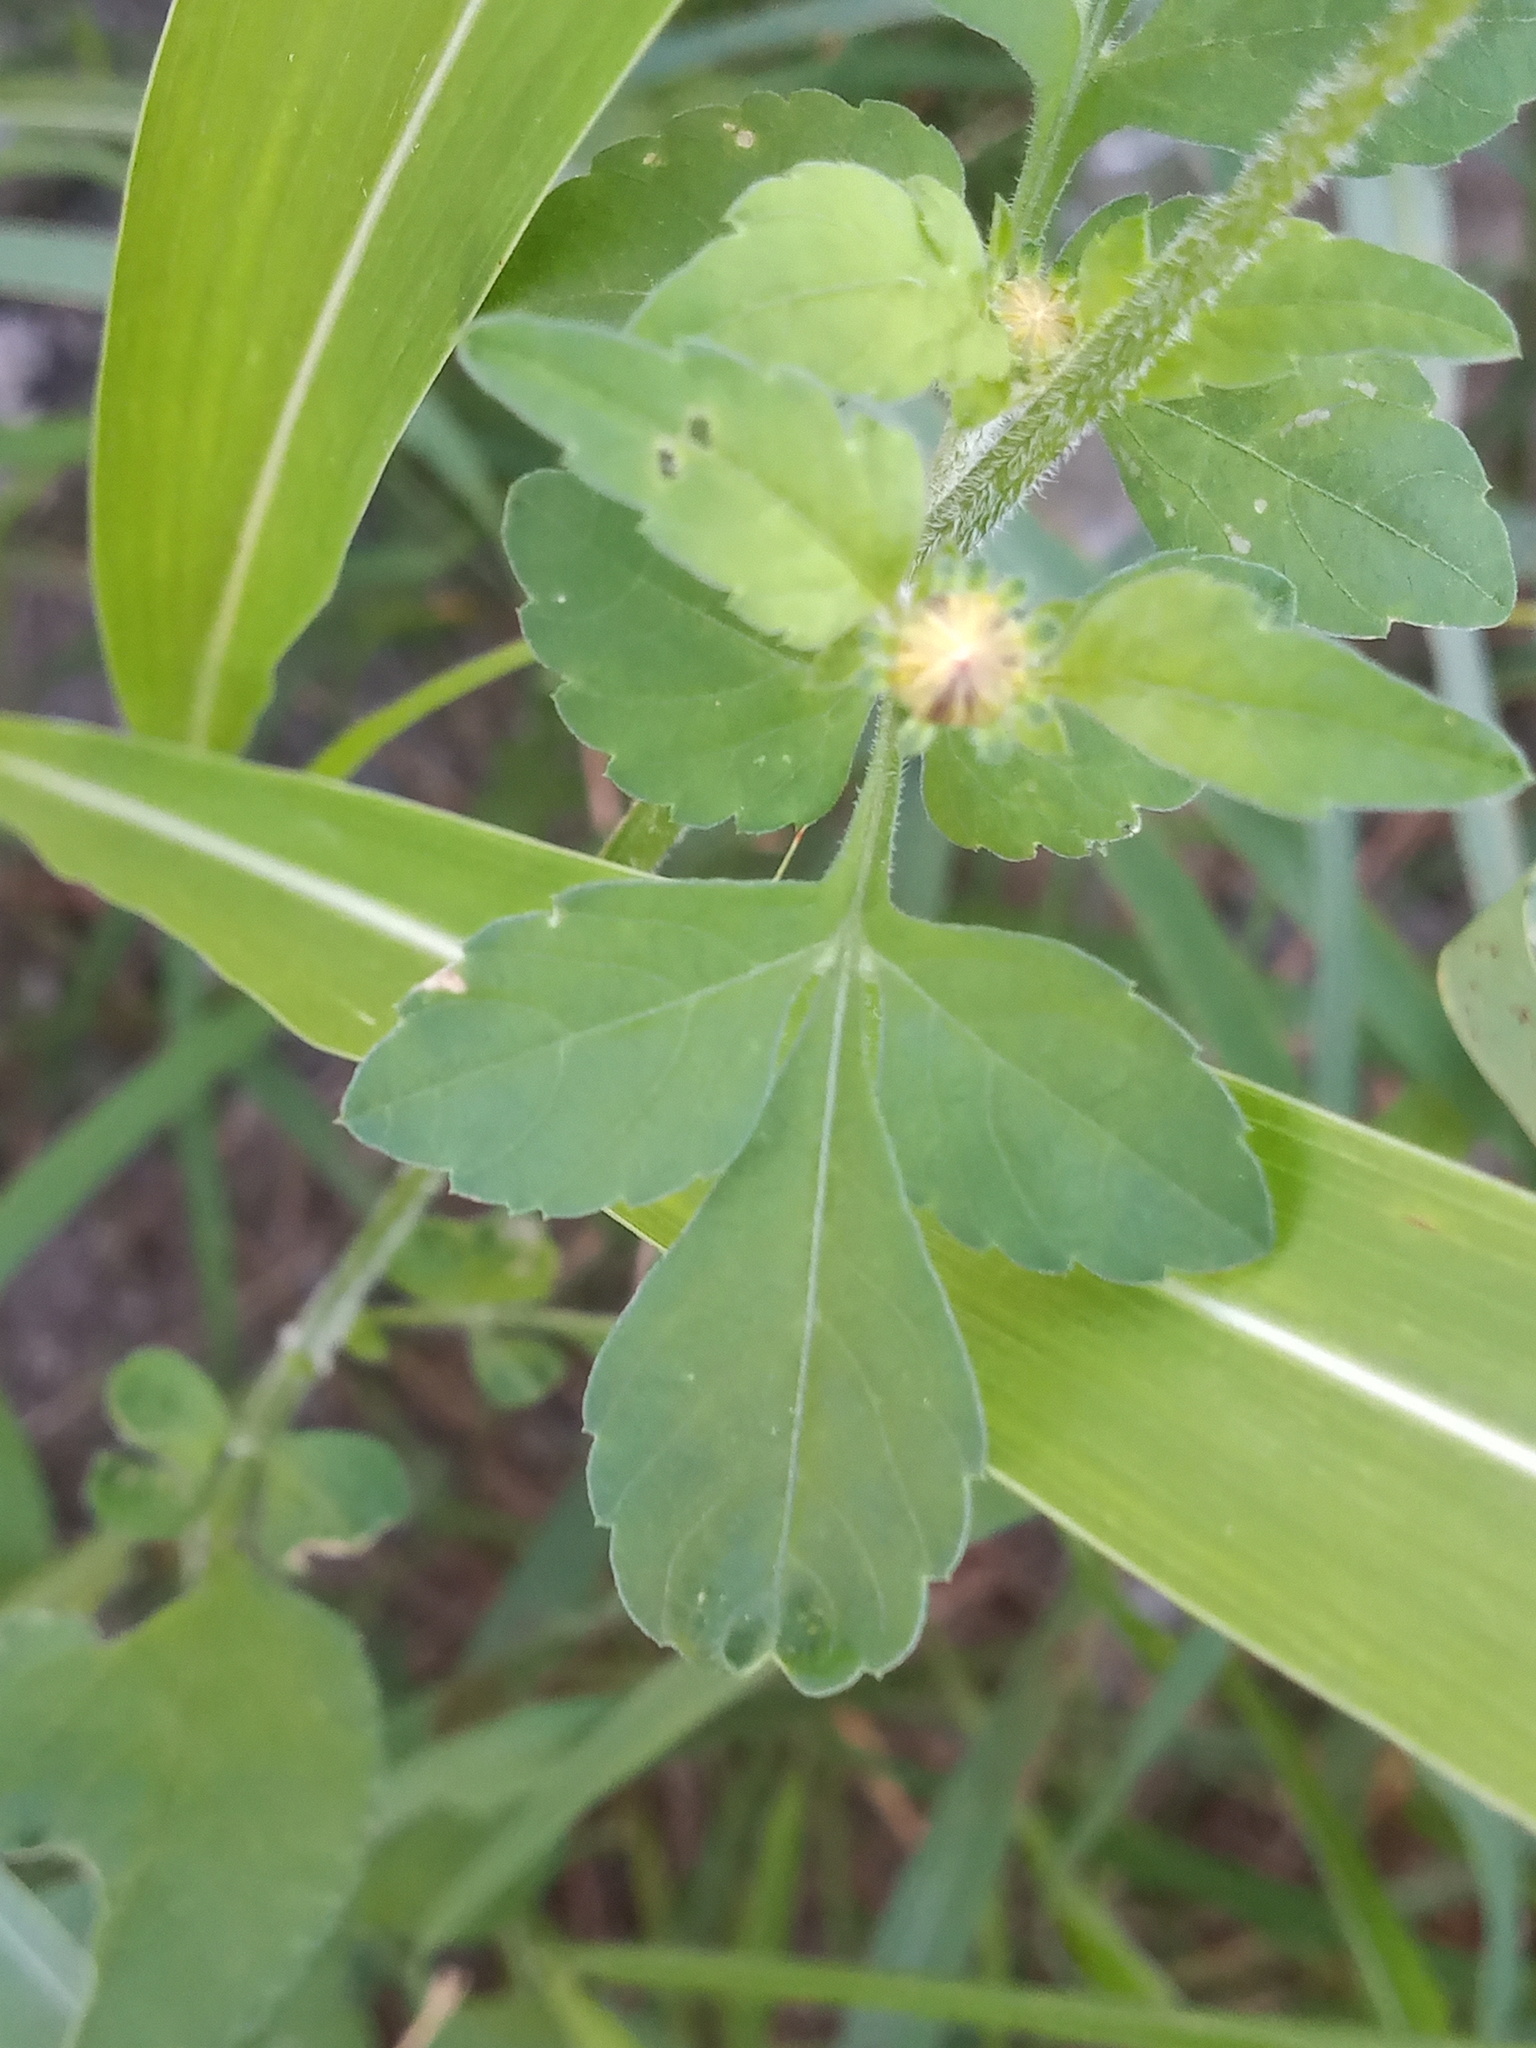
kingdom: Plantae
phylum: Tracheophyta
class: Magnoliopsida
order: Asterales
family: Asteraceae
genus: Bidens
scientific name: Bidens odorata
